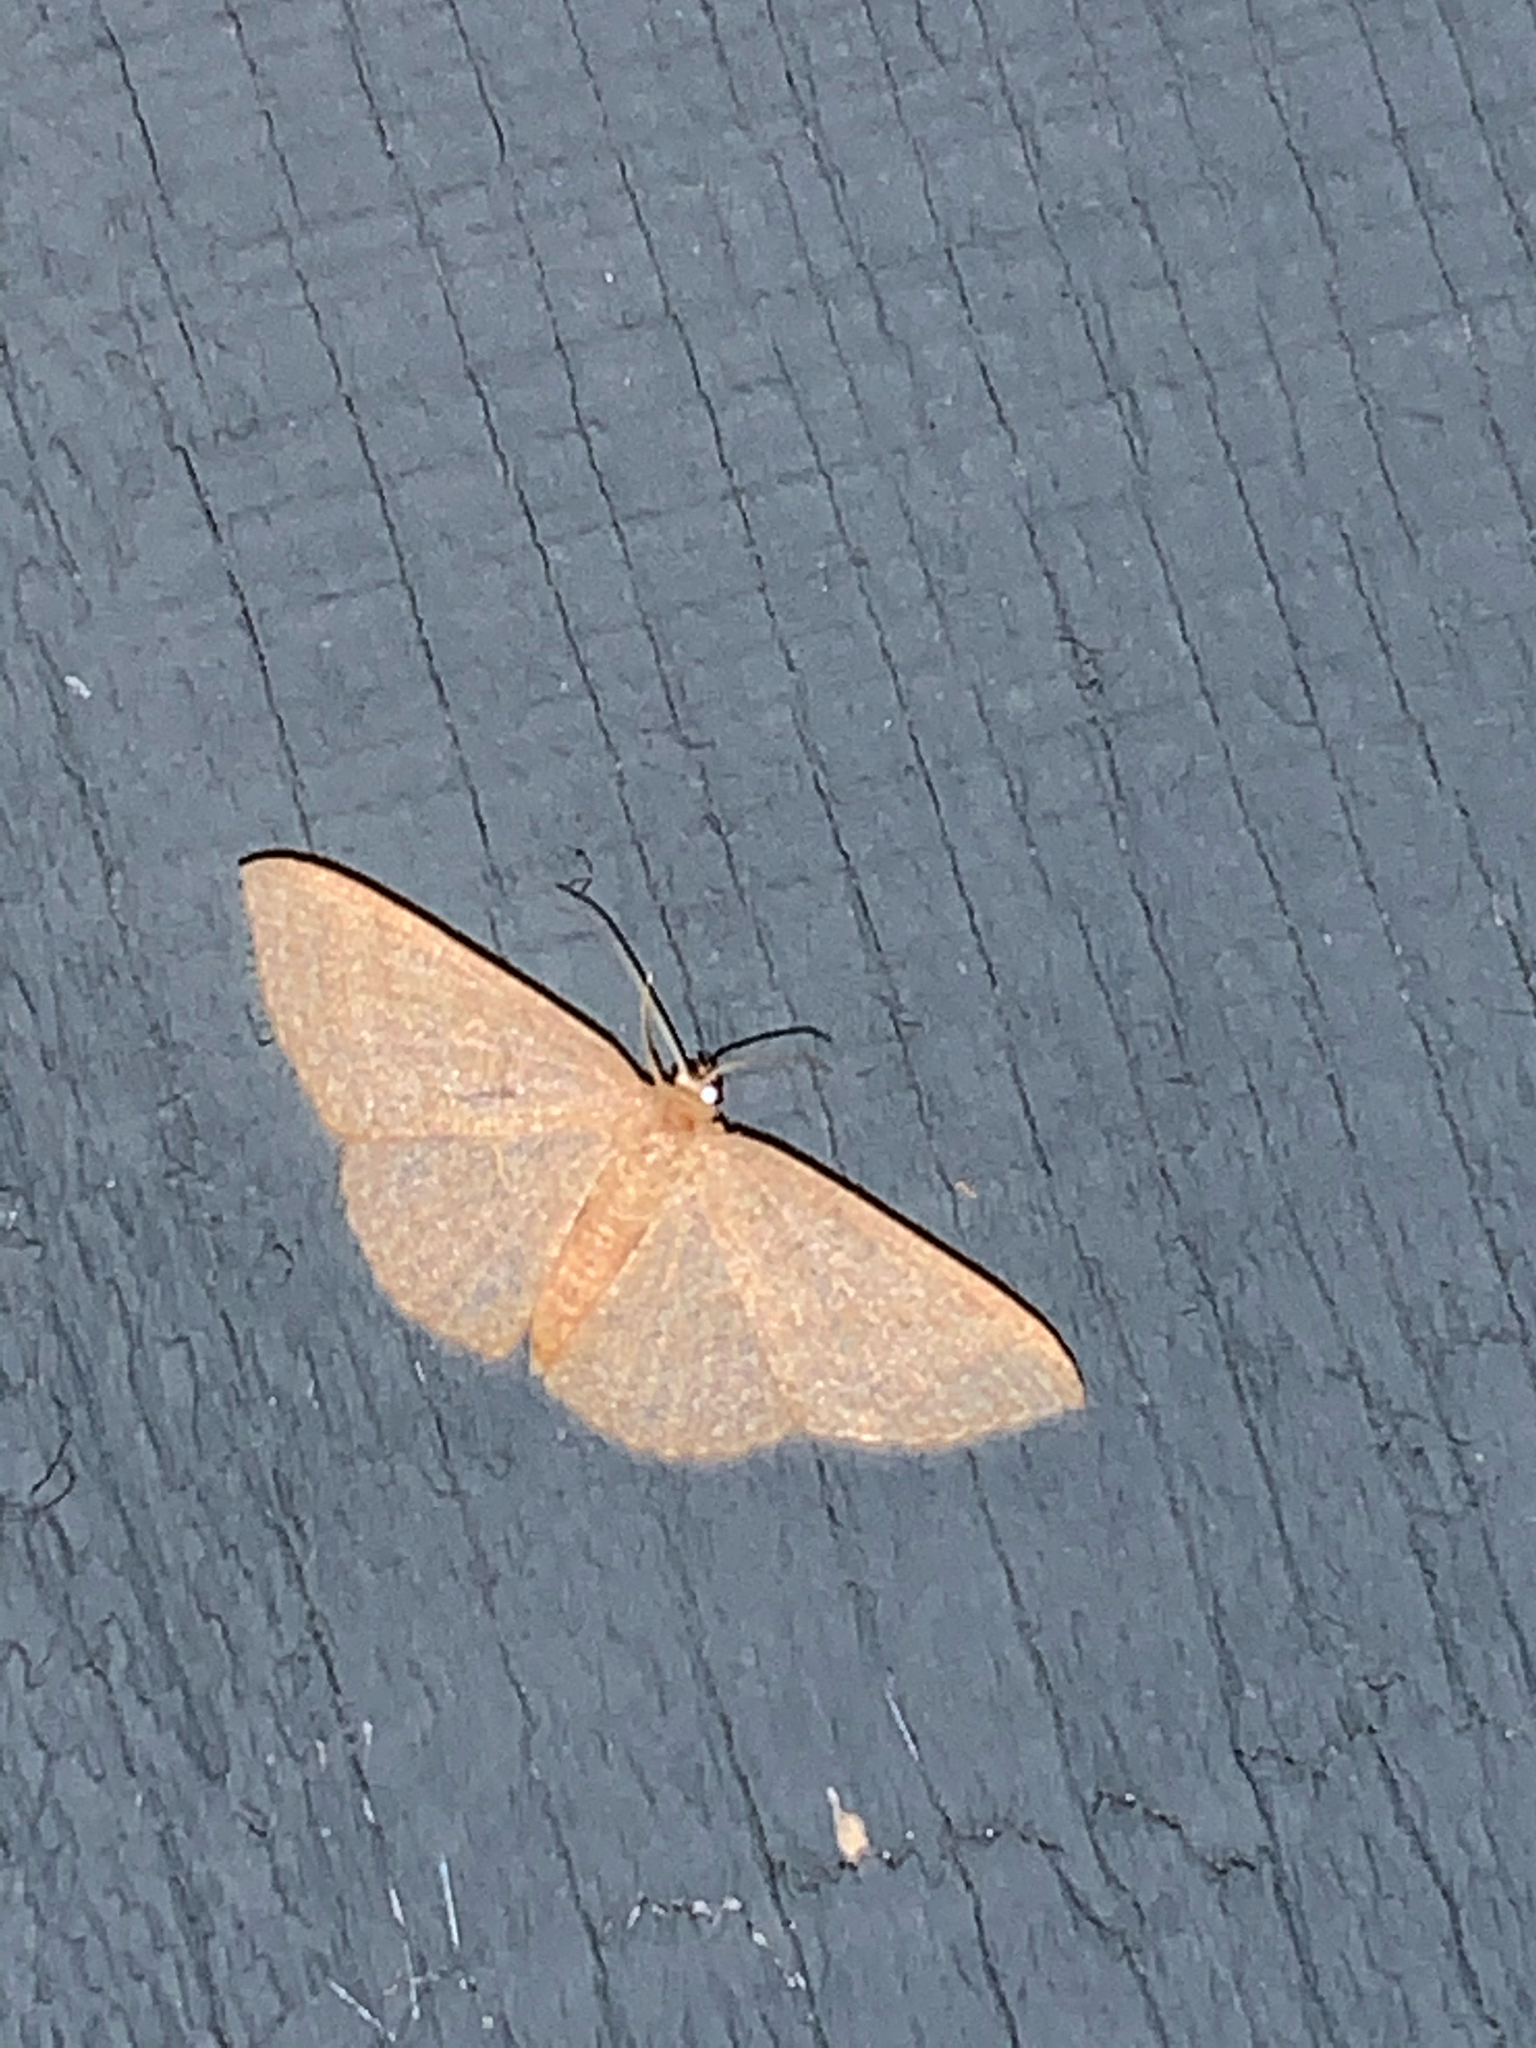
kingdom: Animalia
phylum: Arthropoda
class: Insecta
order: Lepidoptera
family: Geometridae
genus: Pleuroprucha
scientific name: Pleuroprucha insulsaria
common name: Common tan wave
